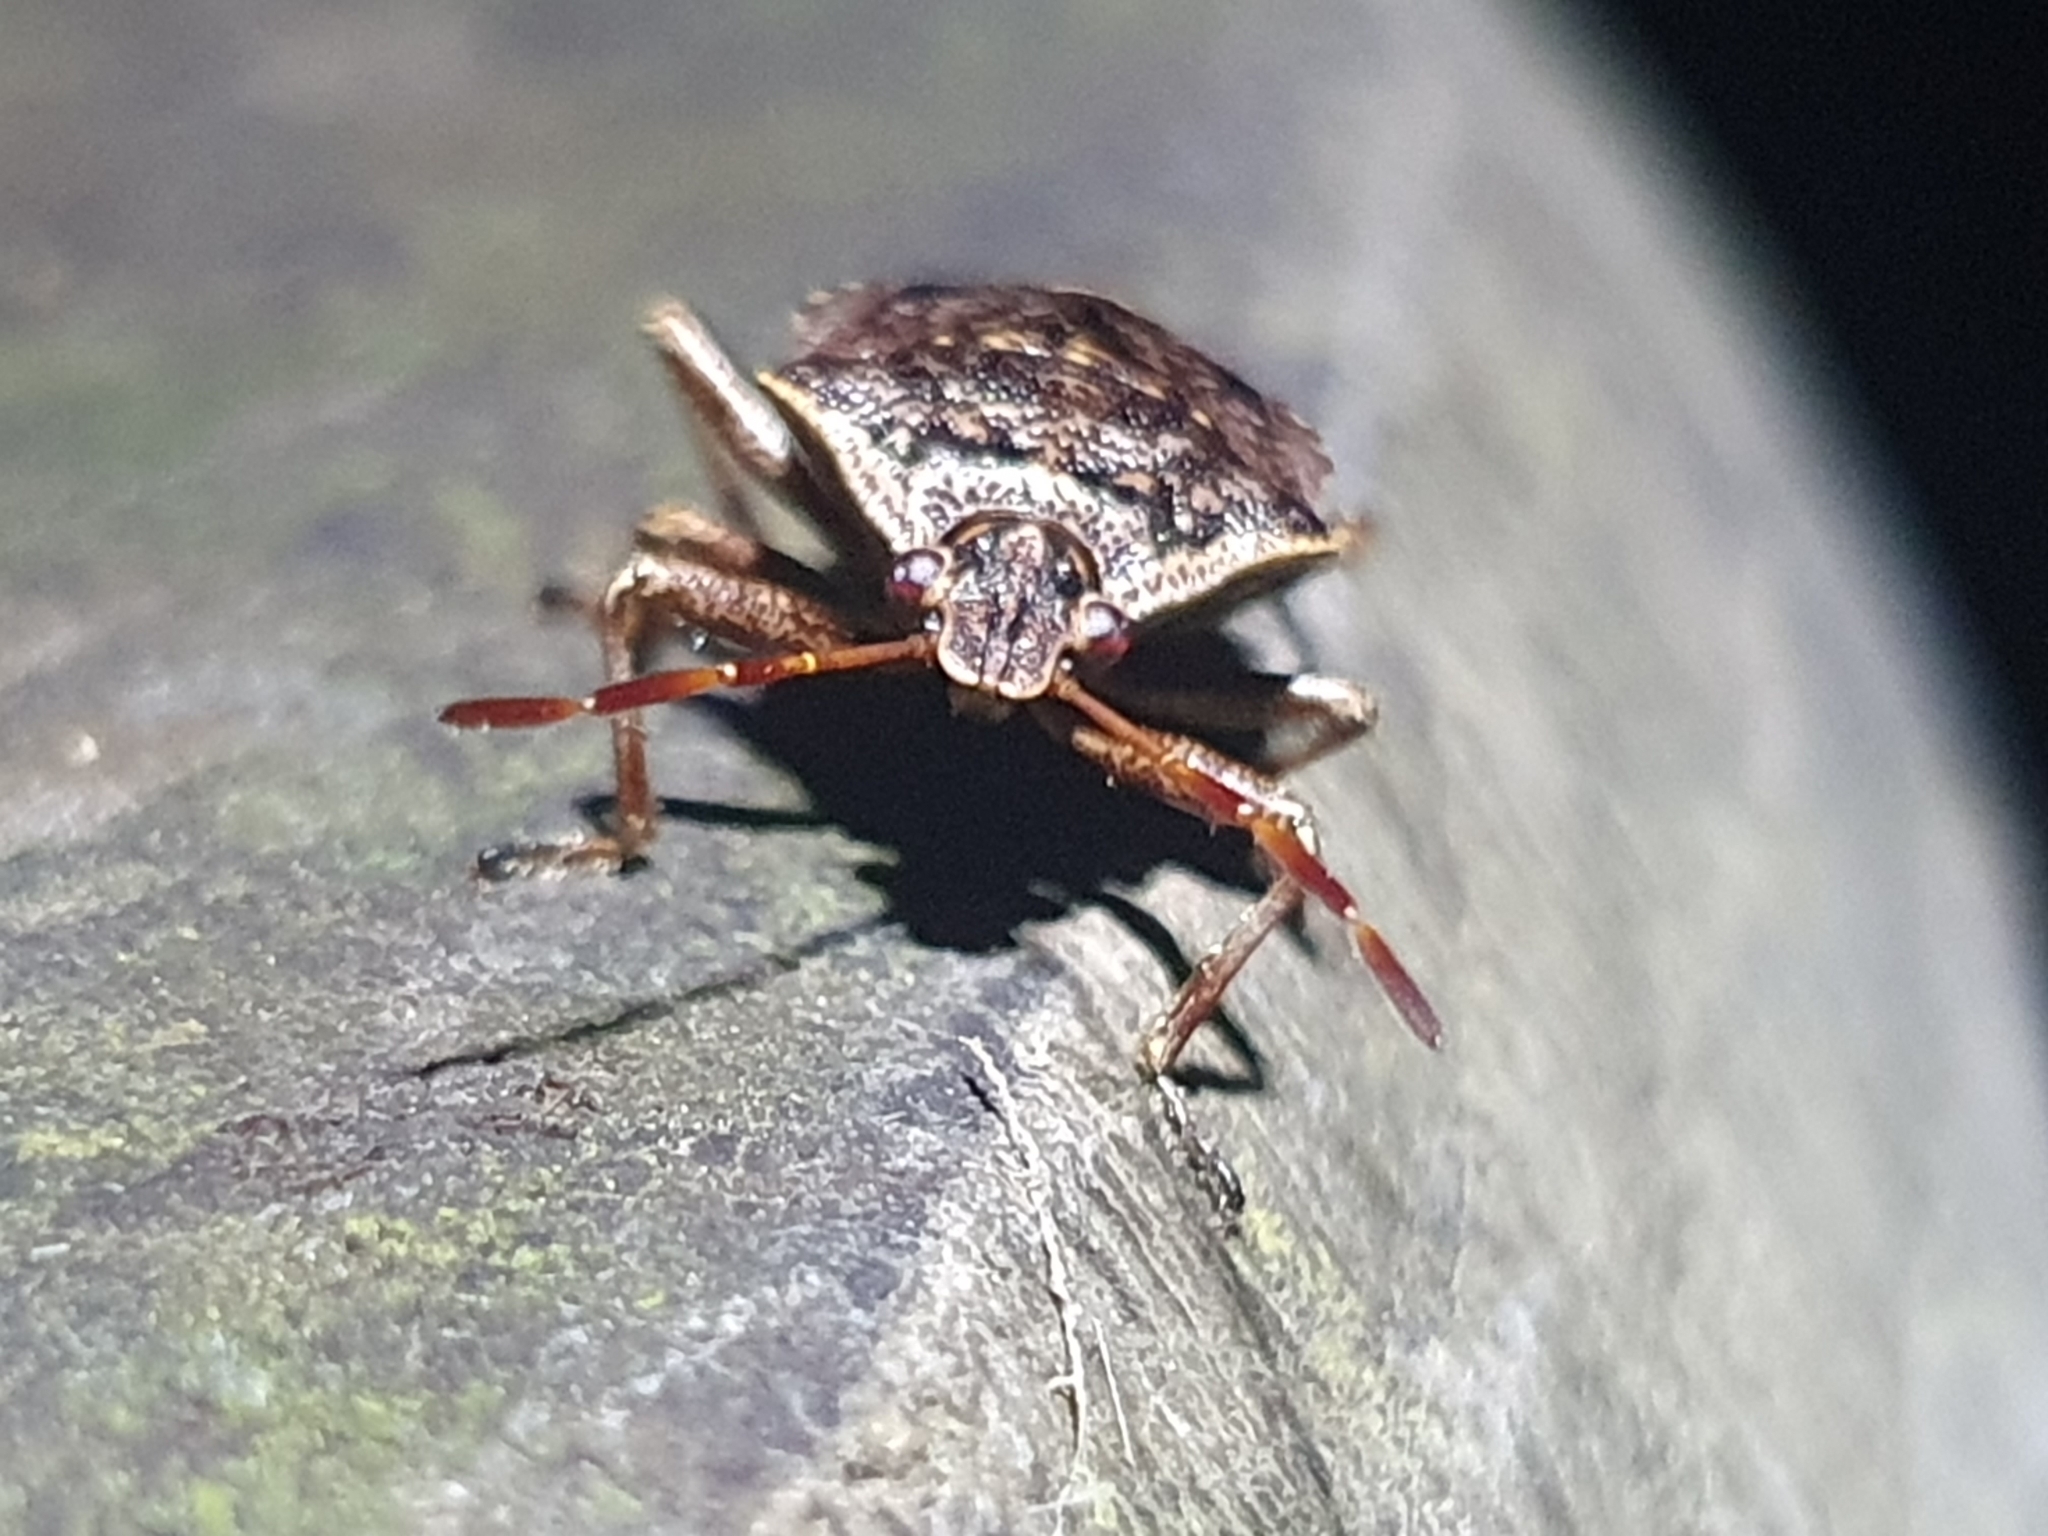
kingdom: Animalia
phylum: Arthropoda
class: Insecta
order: Hemiptera
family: Pentatomidae
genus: Cermatulus
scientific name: Cermatulus nasalis
